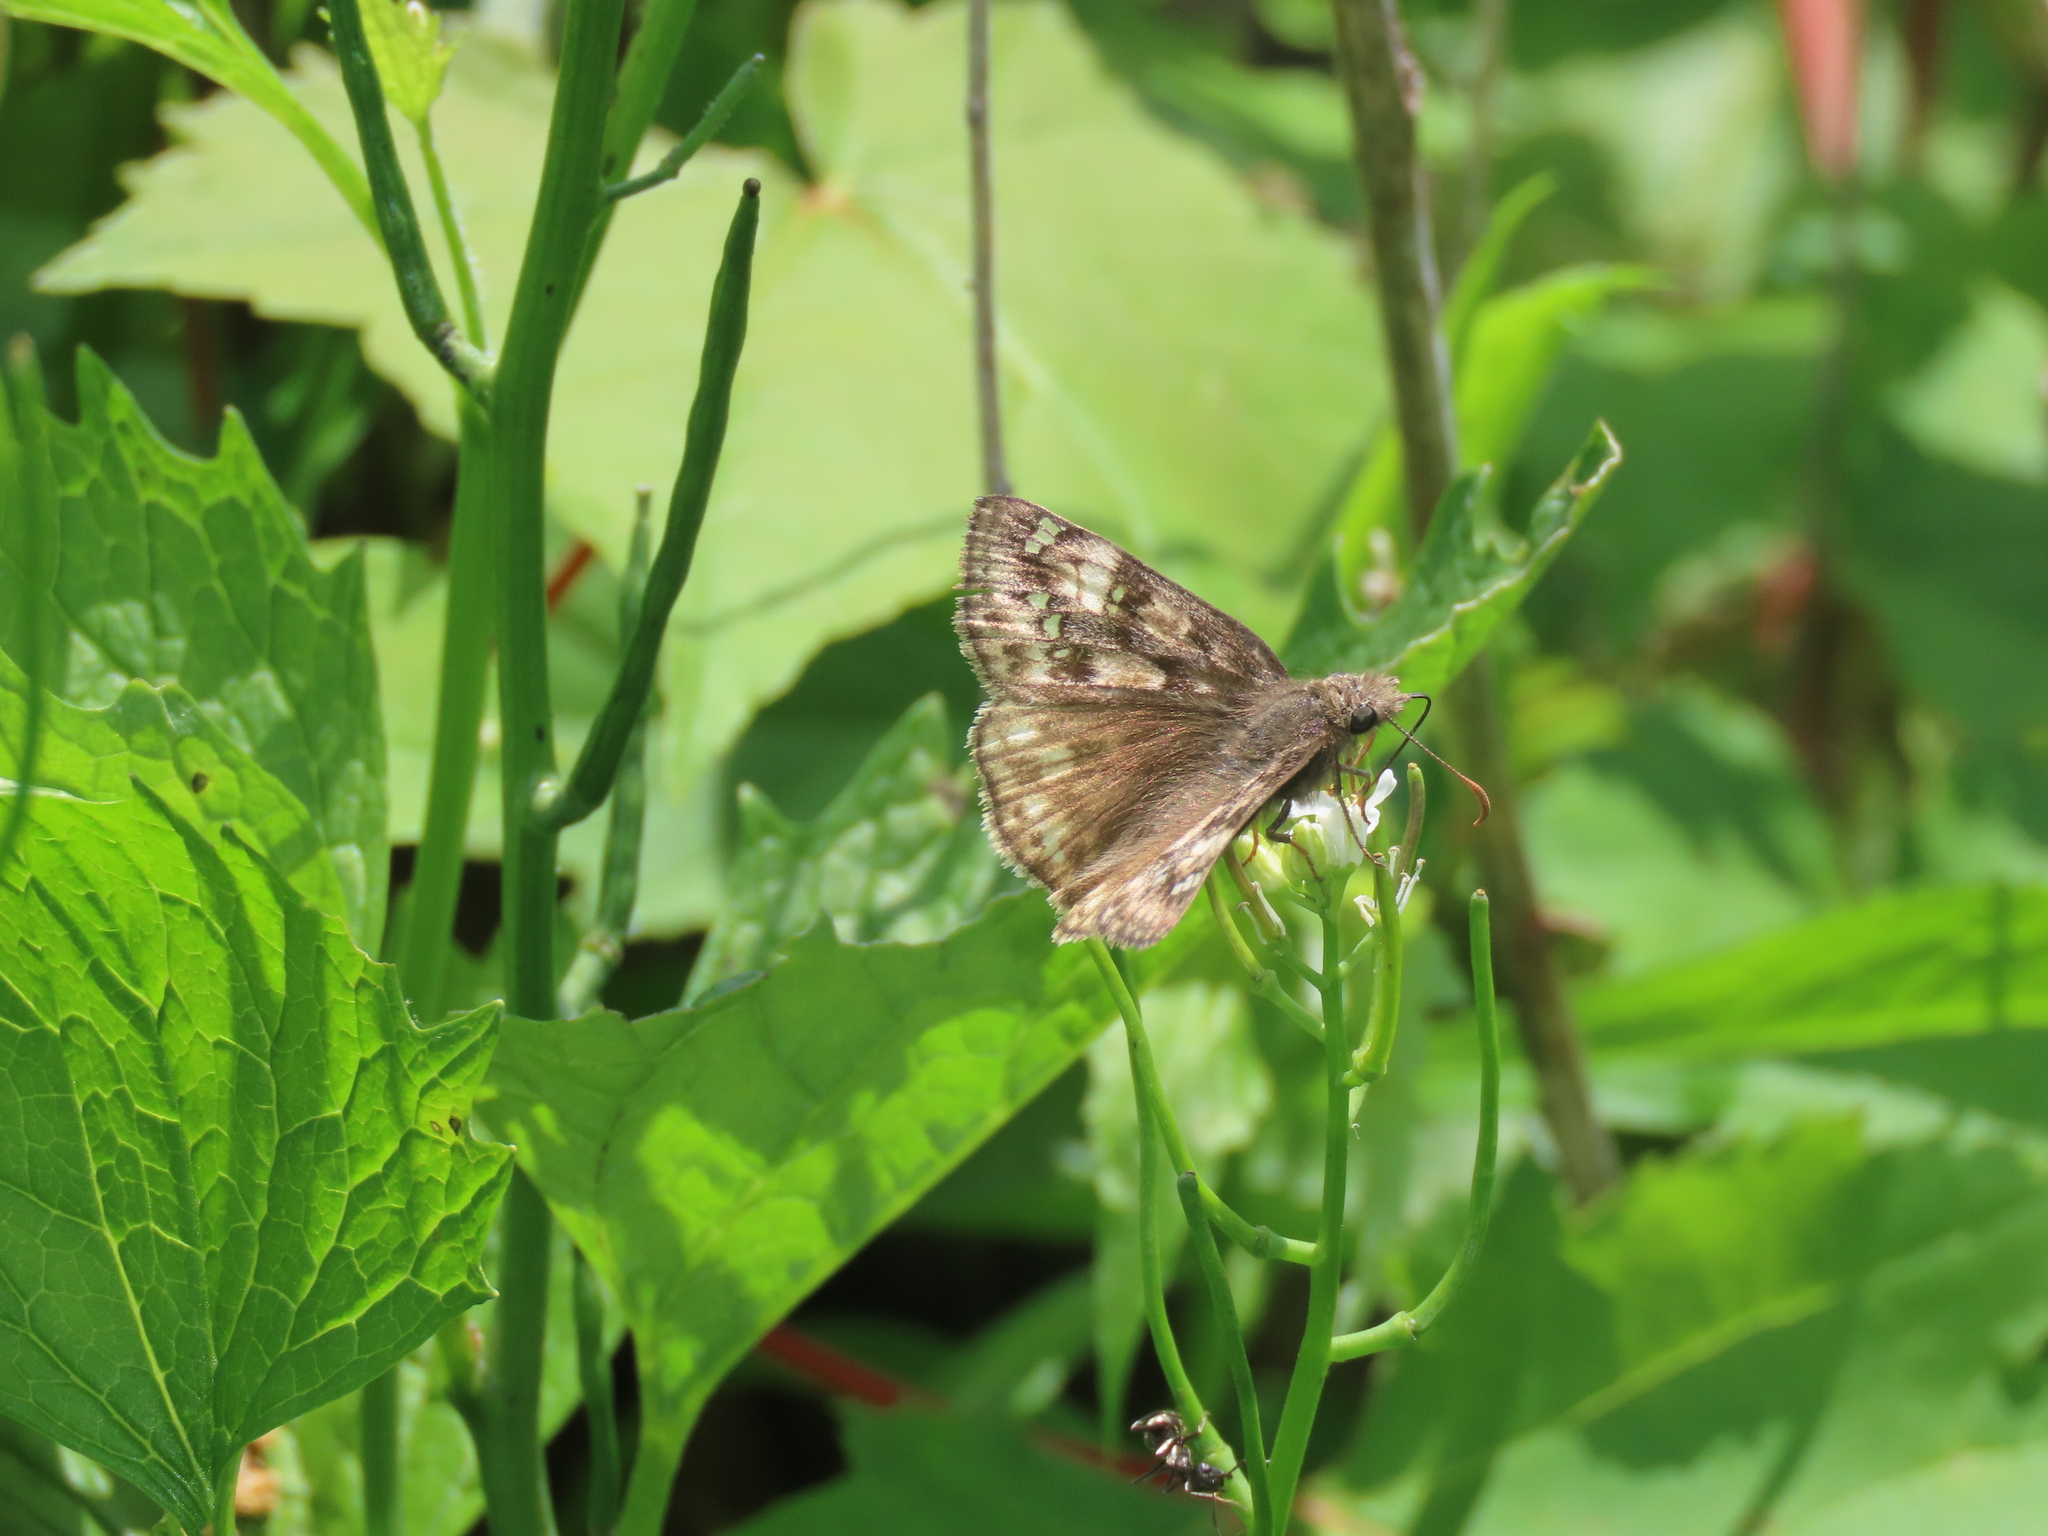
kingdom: Animalia
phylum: Arthropoda
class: Insecta
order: Lepidoptera
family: Hesperiidae
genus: Erynnis
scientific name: Erynnis juvenalis
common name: Juvenal's duskywing
